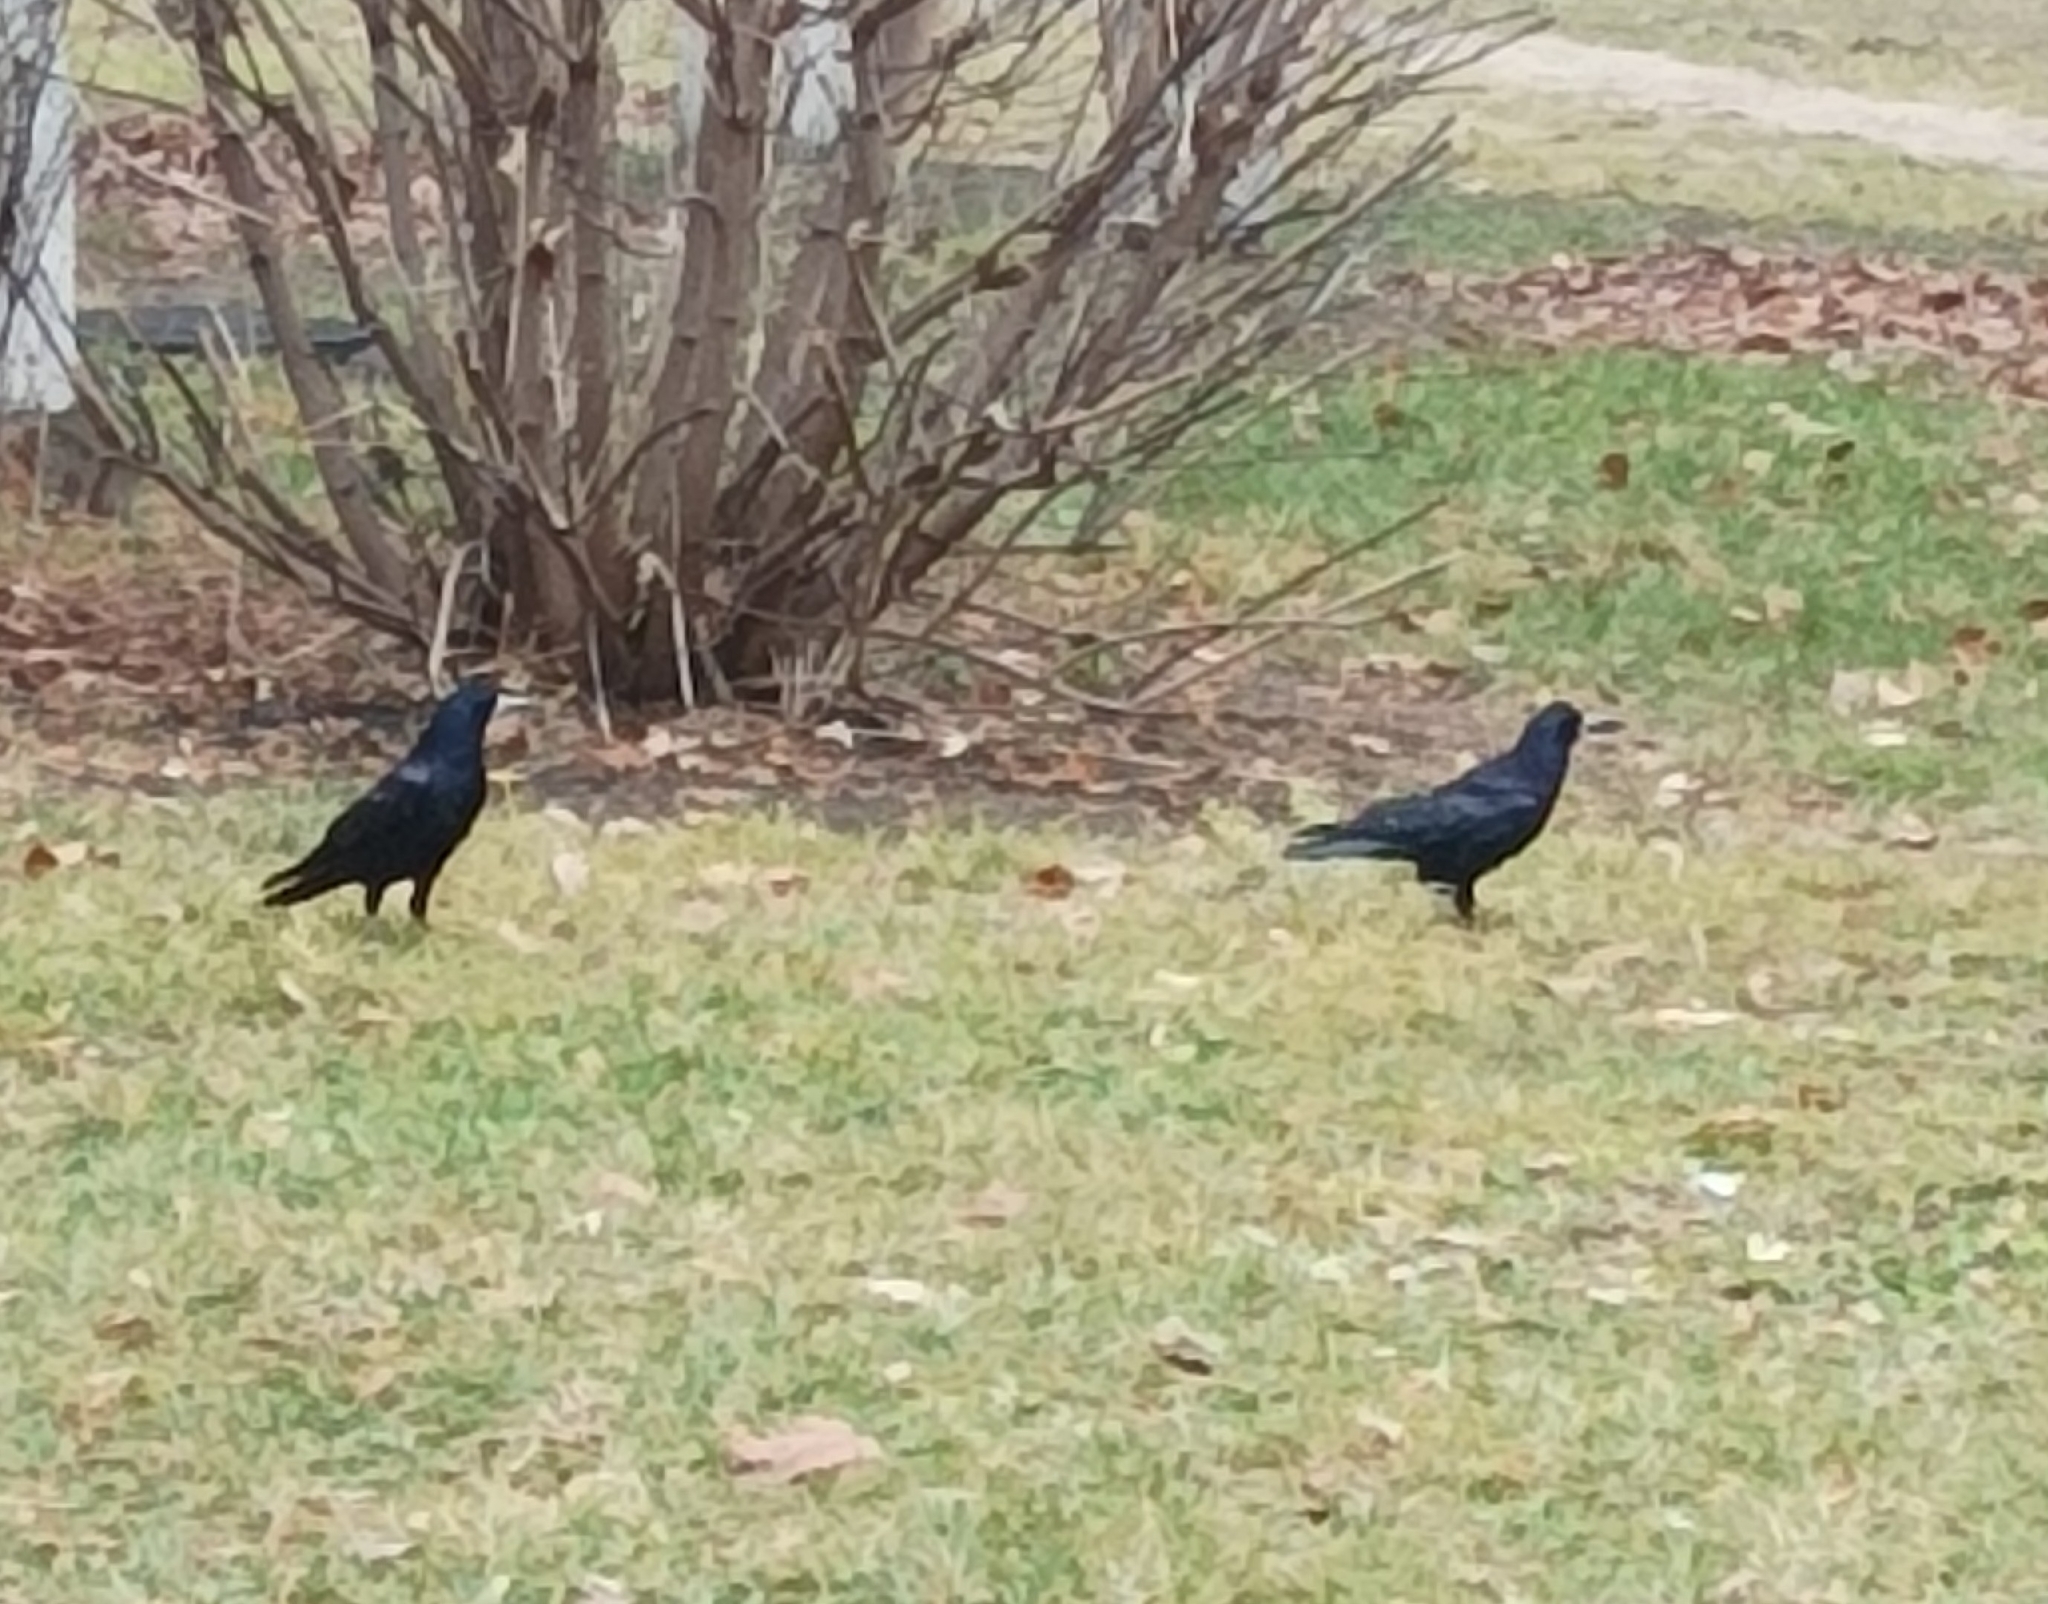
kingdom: Animalia
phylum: Chordata
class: Aves
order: Passeriformes
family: Corvidae
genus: Corvus
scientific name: Corvus frugilegus
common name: Rook
